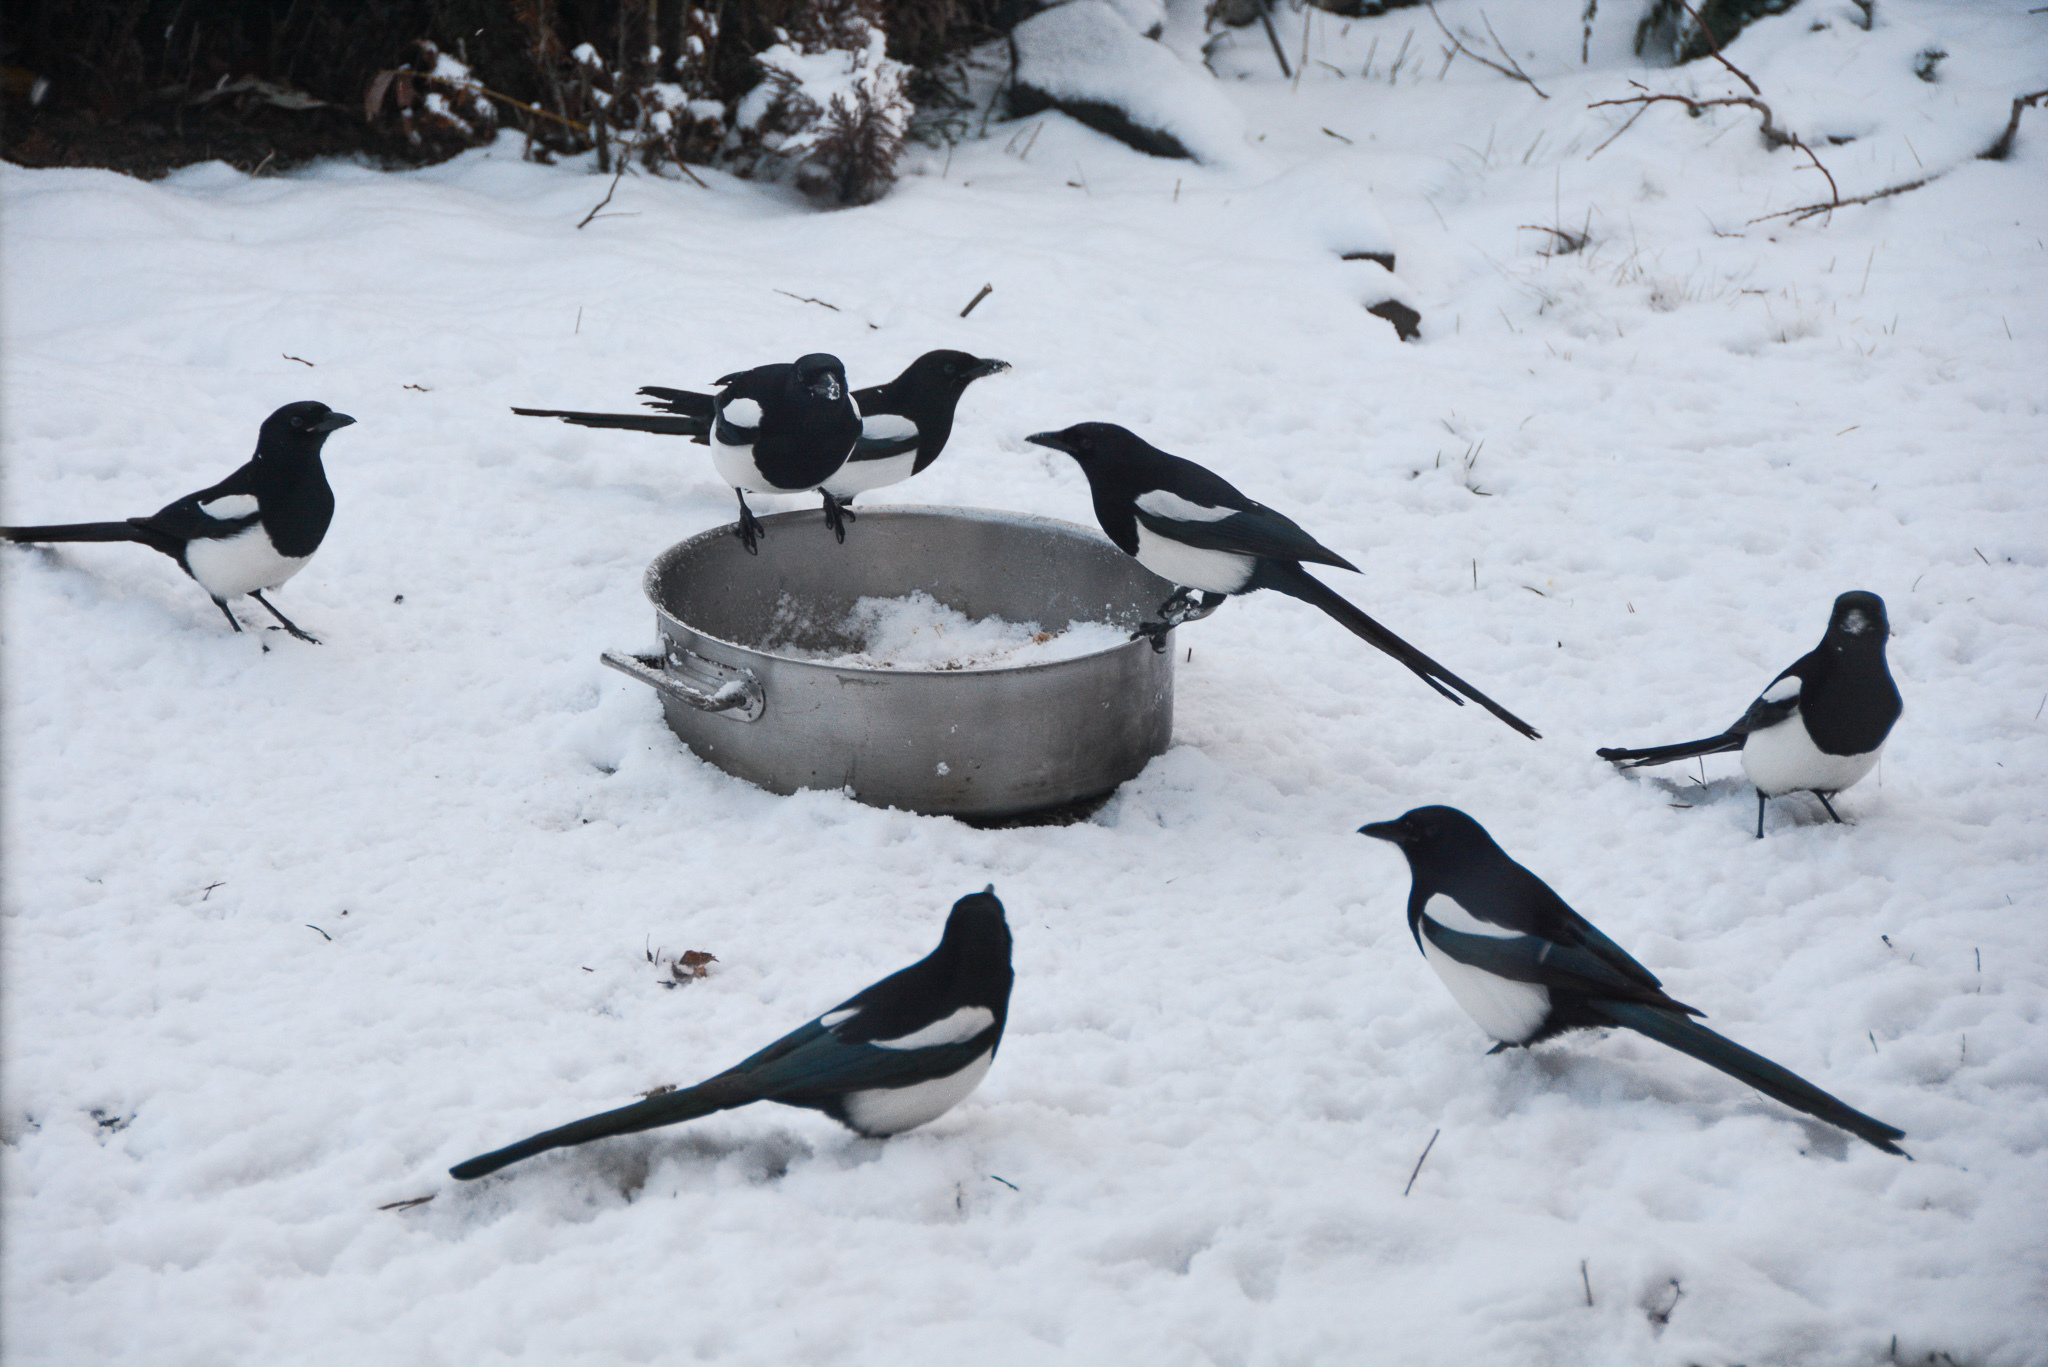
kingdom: Animalia
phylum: Chordata
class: Aves
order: Passeriformes
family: Corvidae
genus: Pica
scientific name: Pica hudsonia
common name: Black-billed magpie
